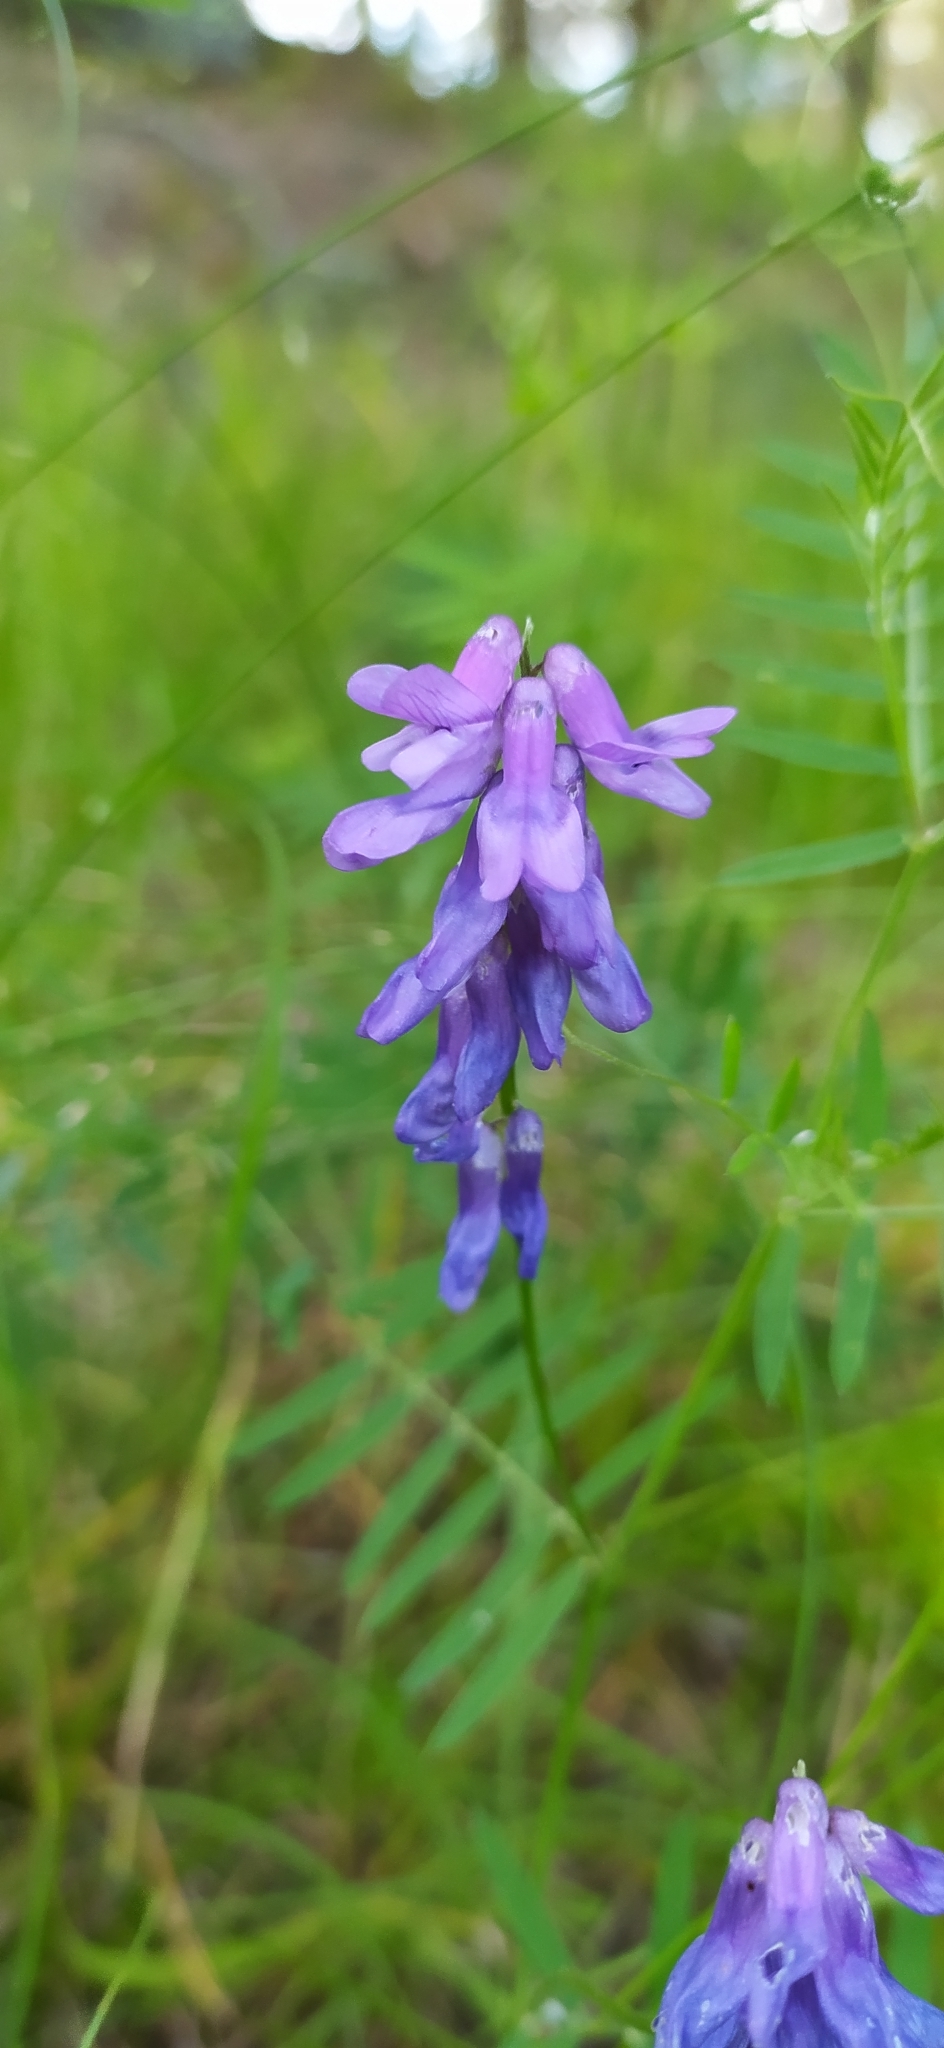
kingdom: Plantae
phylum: Tracheophyta
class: Magnoliopsida
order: Fabales
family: Fabaceae
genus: Vicia
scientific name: Vicia cracca
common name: Bird vetch
